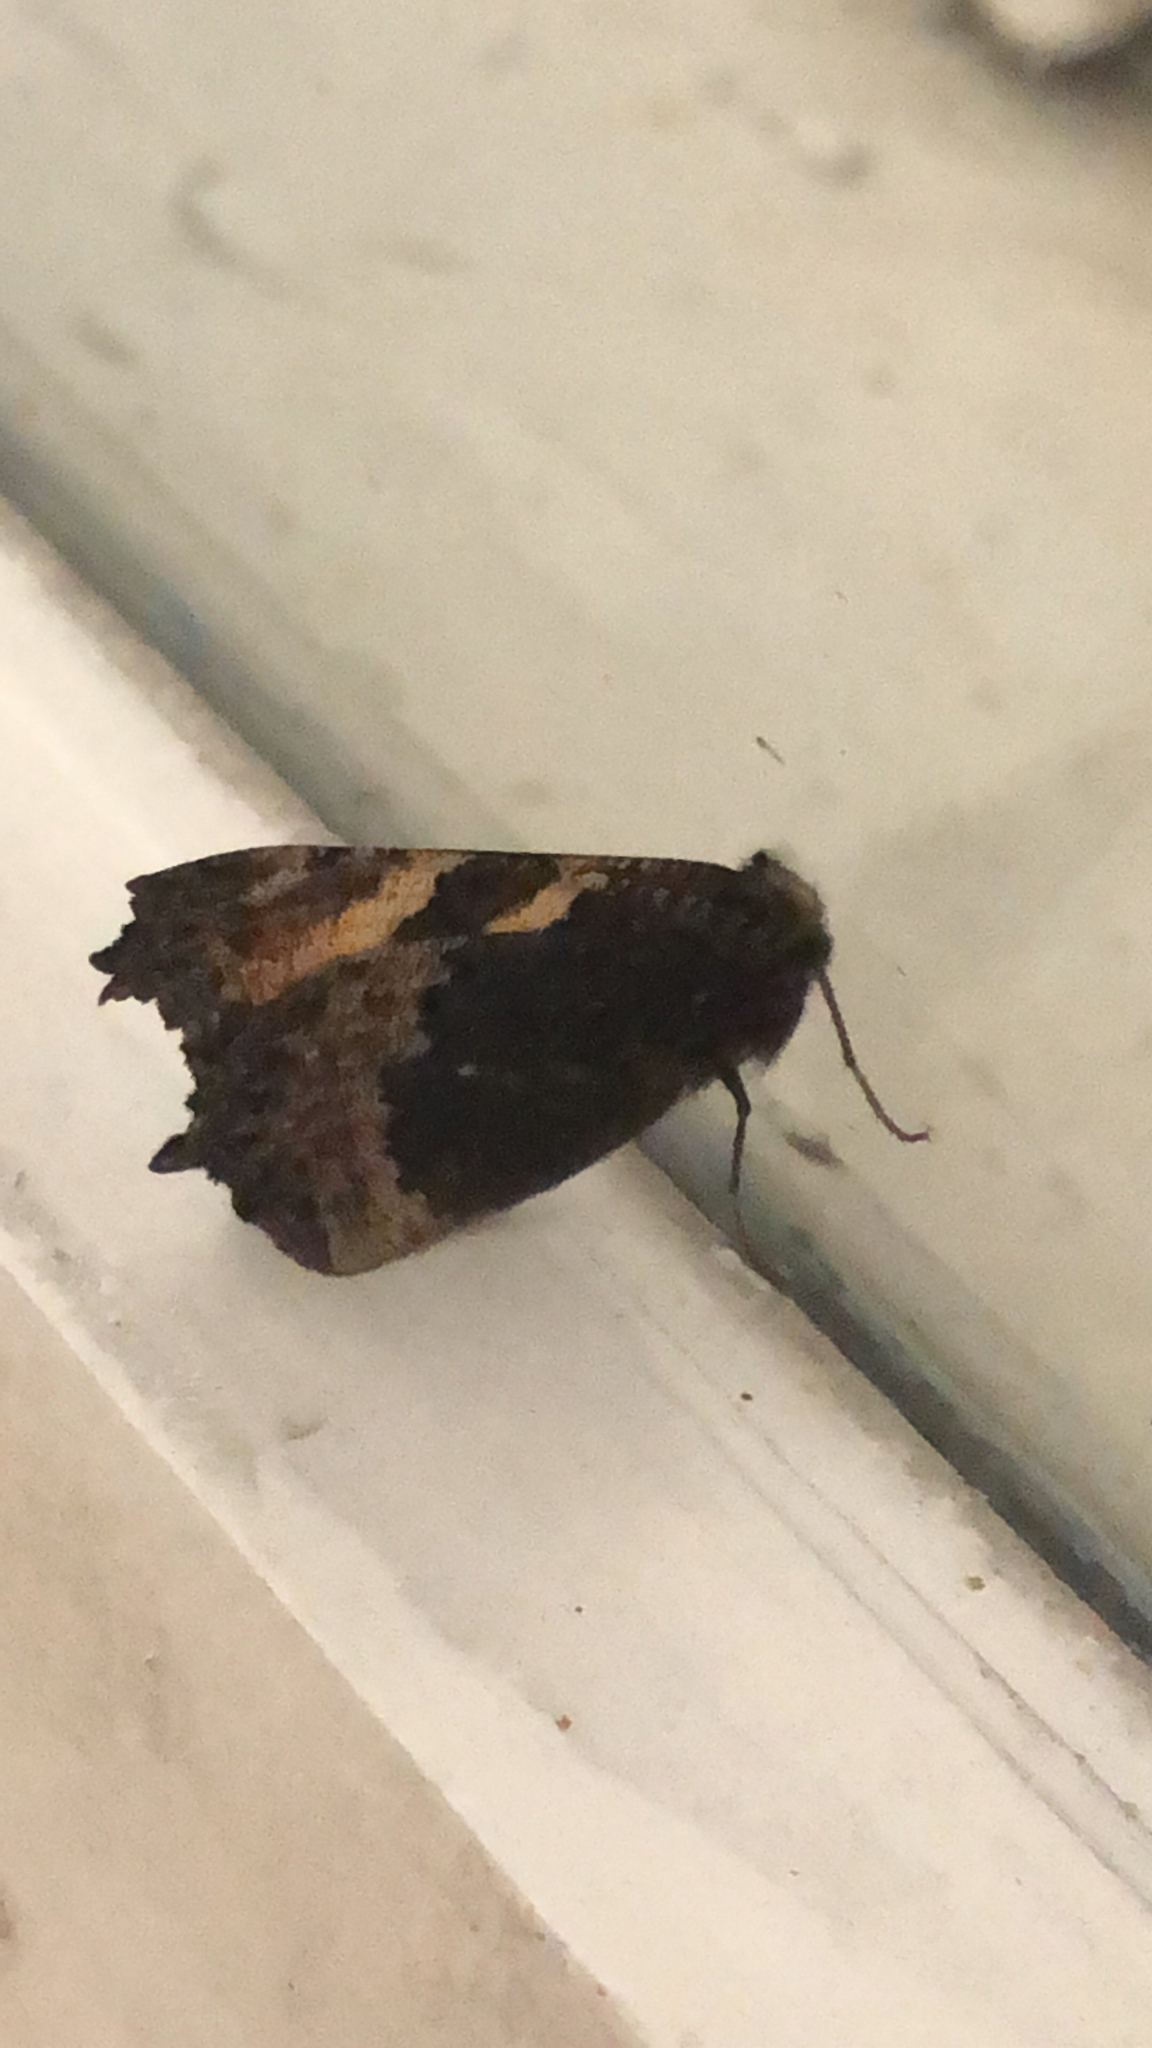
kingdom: Animalia
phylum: Arthropoda
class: Insecta
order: Lepidoptera
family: Nymphalidae
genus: Aglais
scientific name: Aglais urticae
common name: Small tortoiseshell
